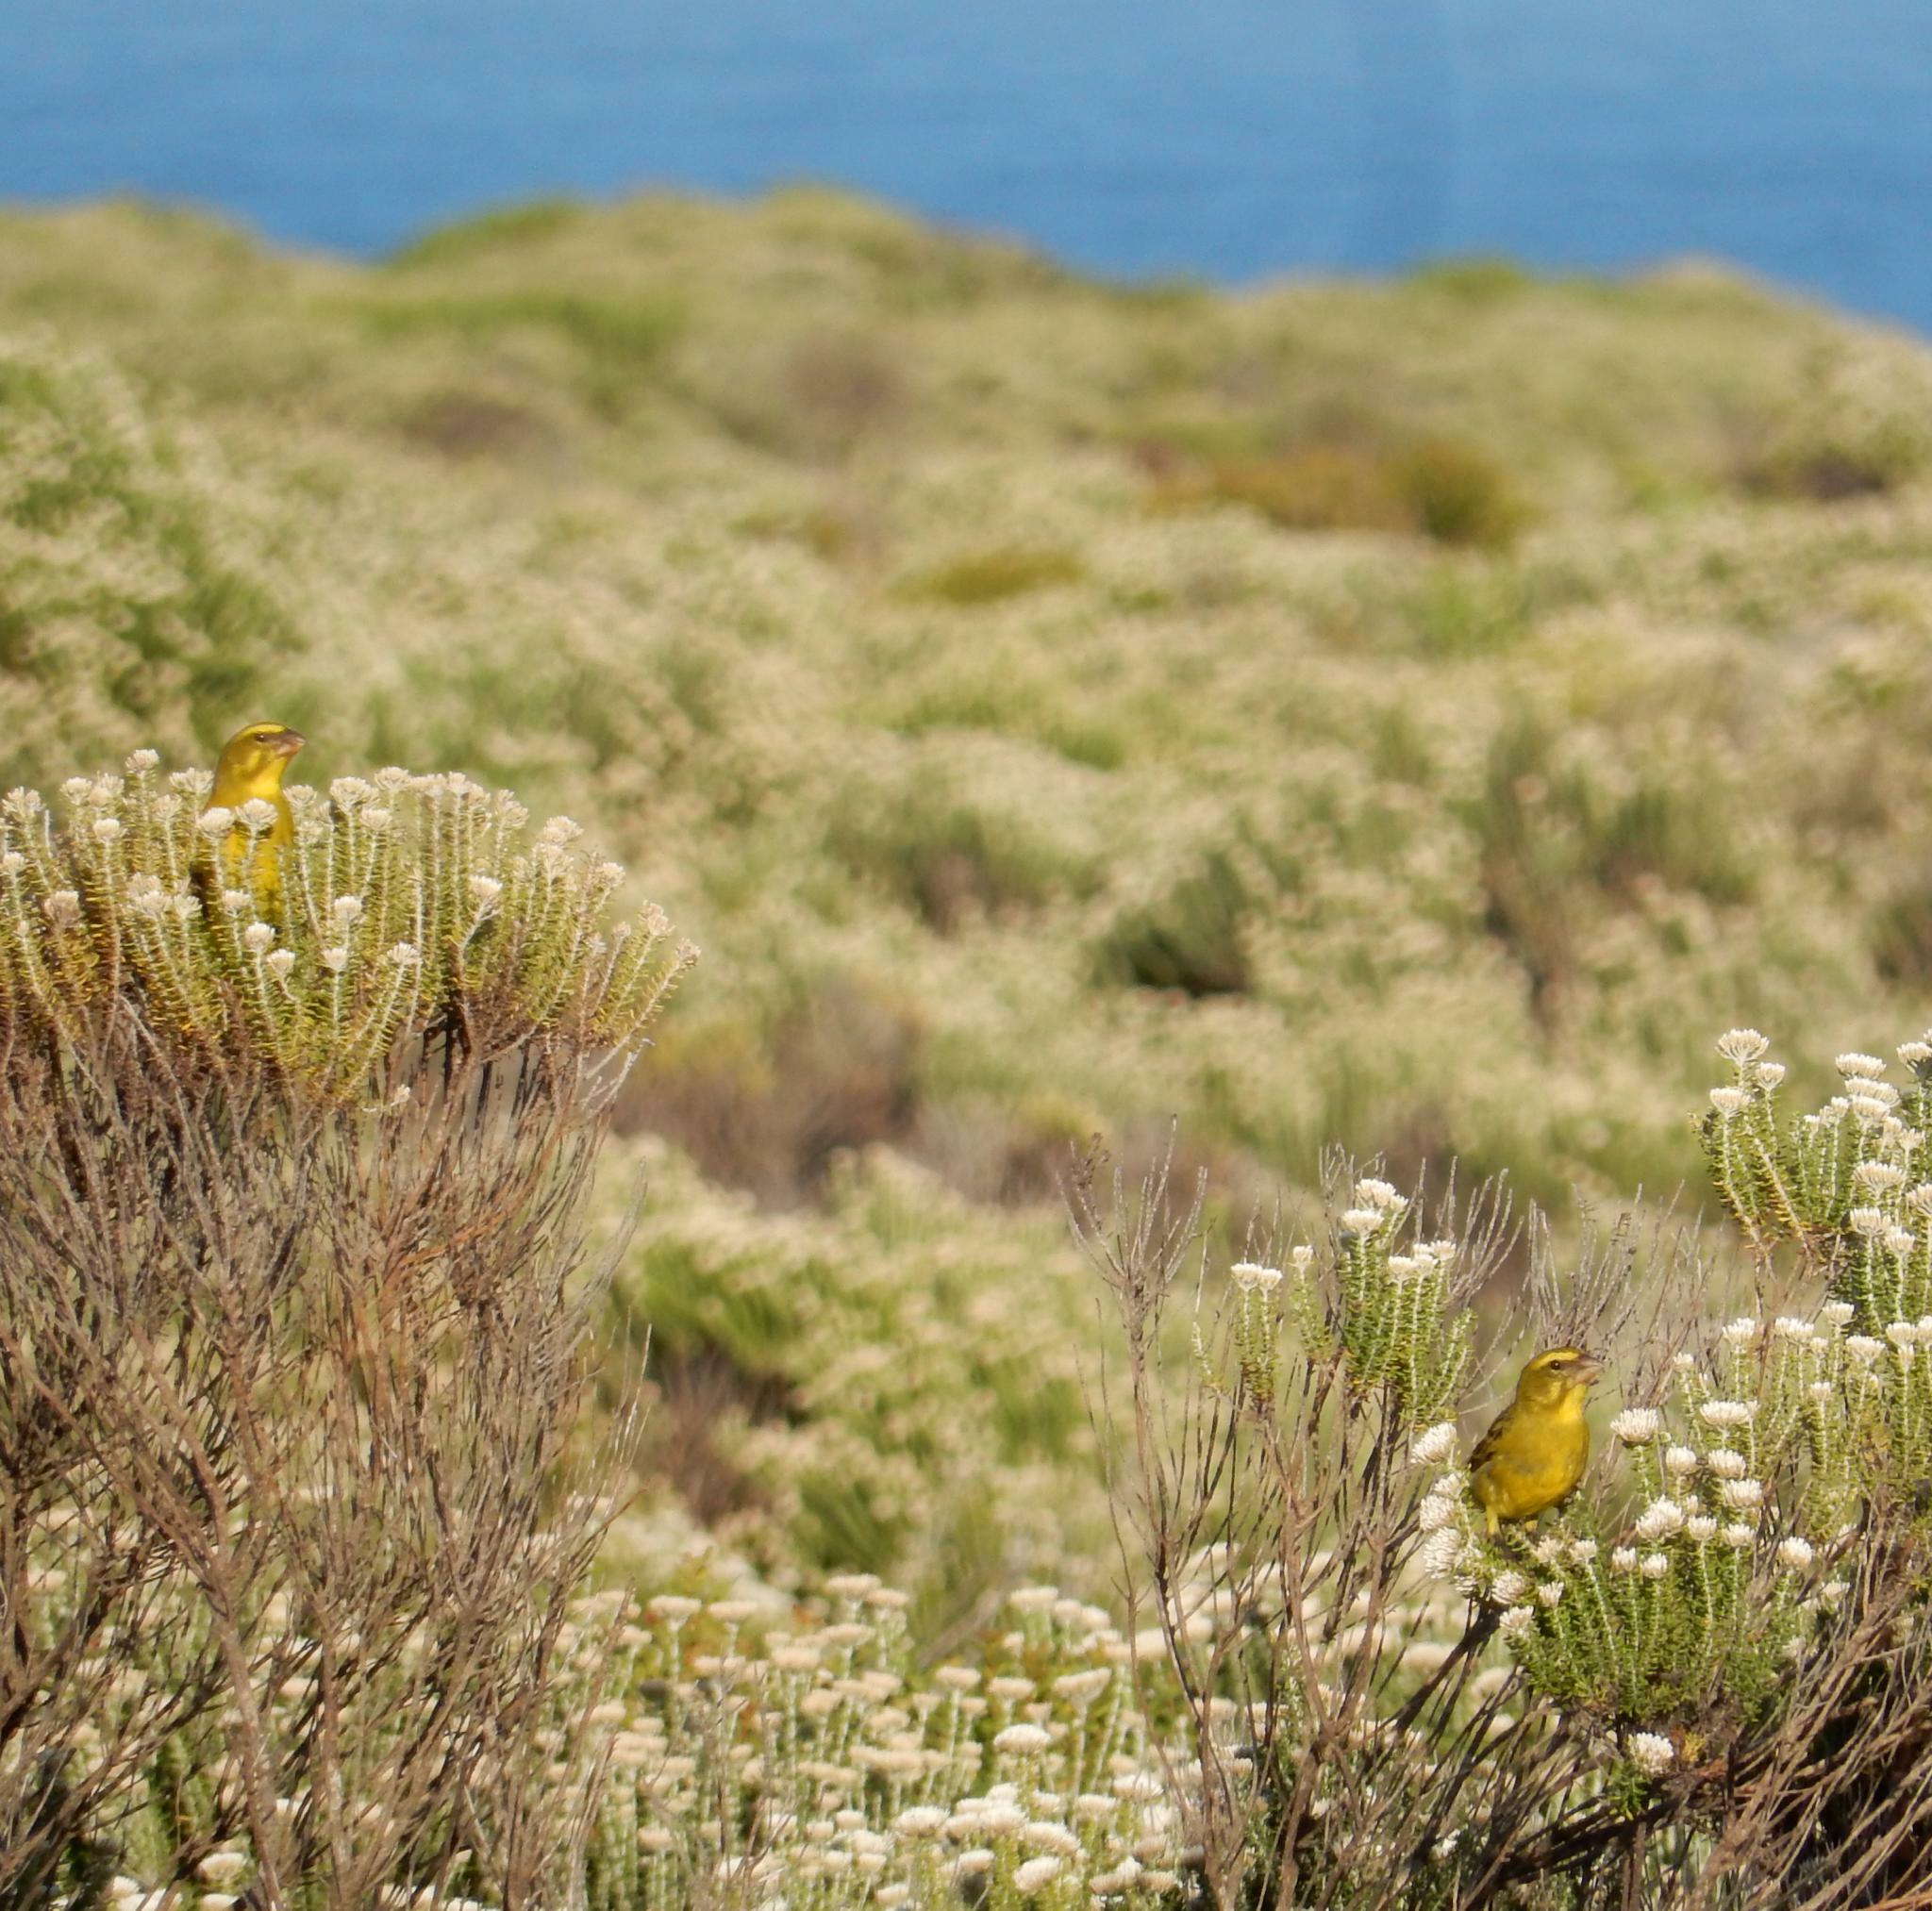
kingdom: Animalia
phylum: Chordata
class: Aves
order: Passeriformes
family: Fringillidae
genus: Crithagra
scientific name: Crithagra sulphurata
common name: Brimstone canary
